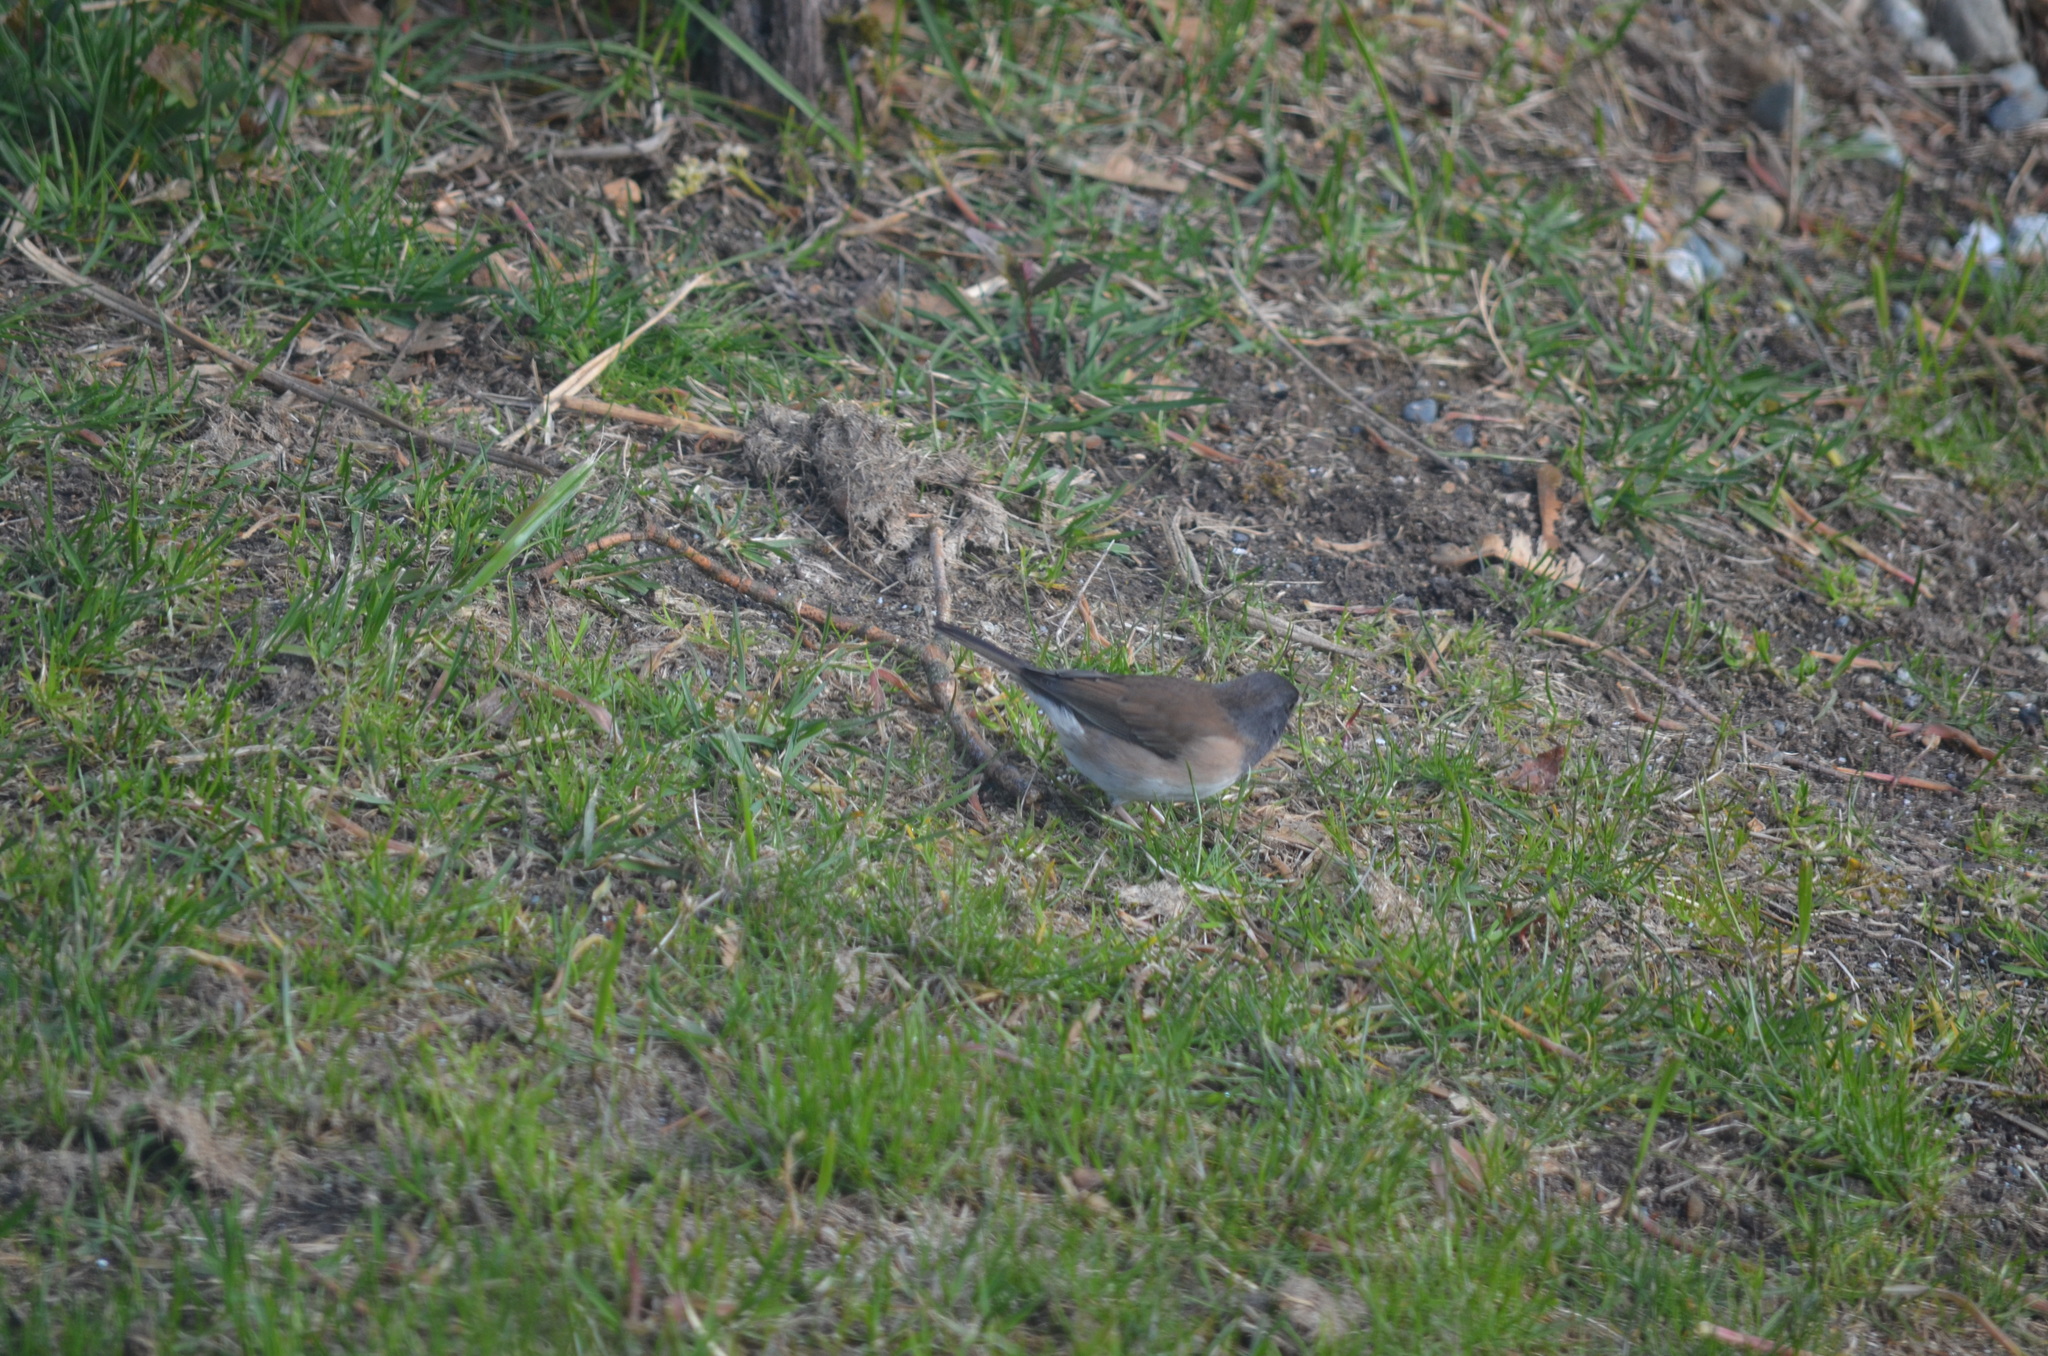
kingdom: Animalia
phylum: Chordata
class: Aves
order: Passeriformes
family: Passerellidae
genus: Junco
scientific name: Junco hyemalis
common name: Dark-eyed junco
